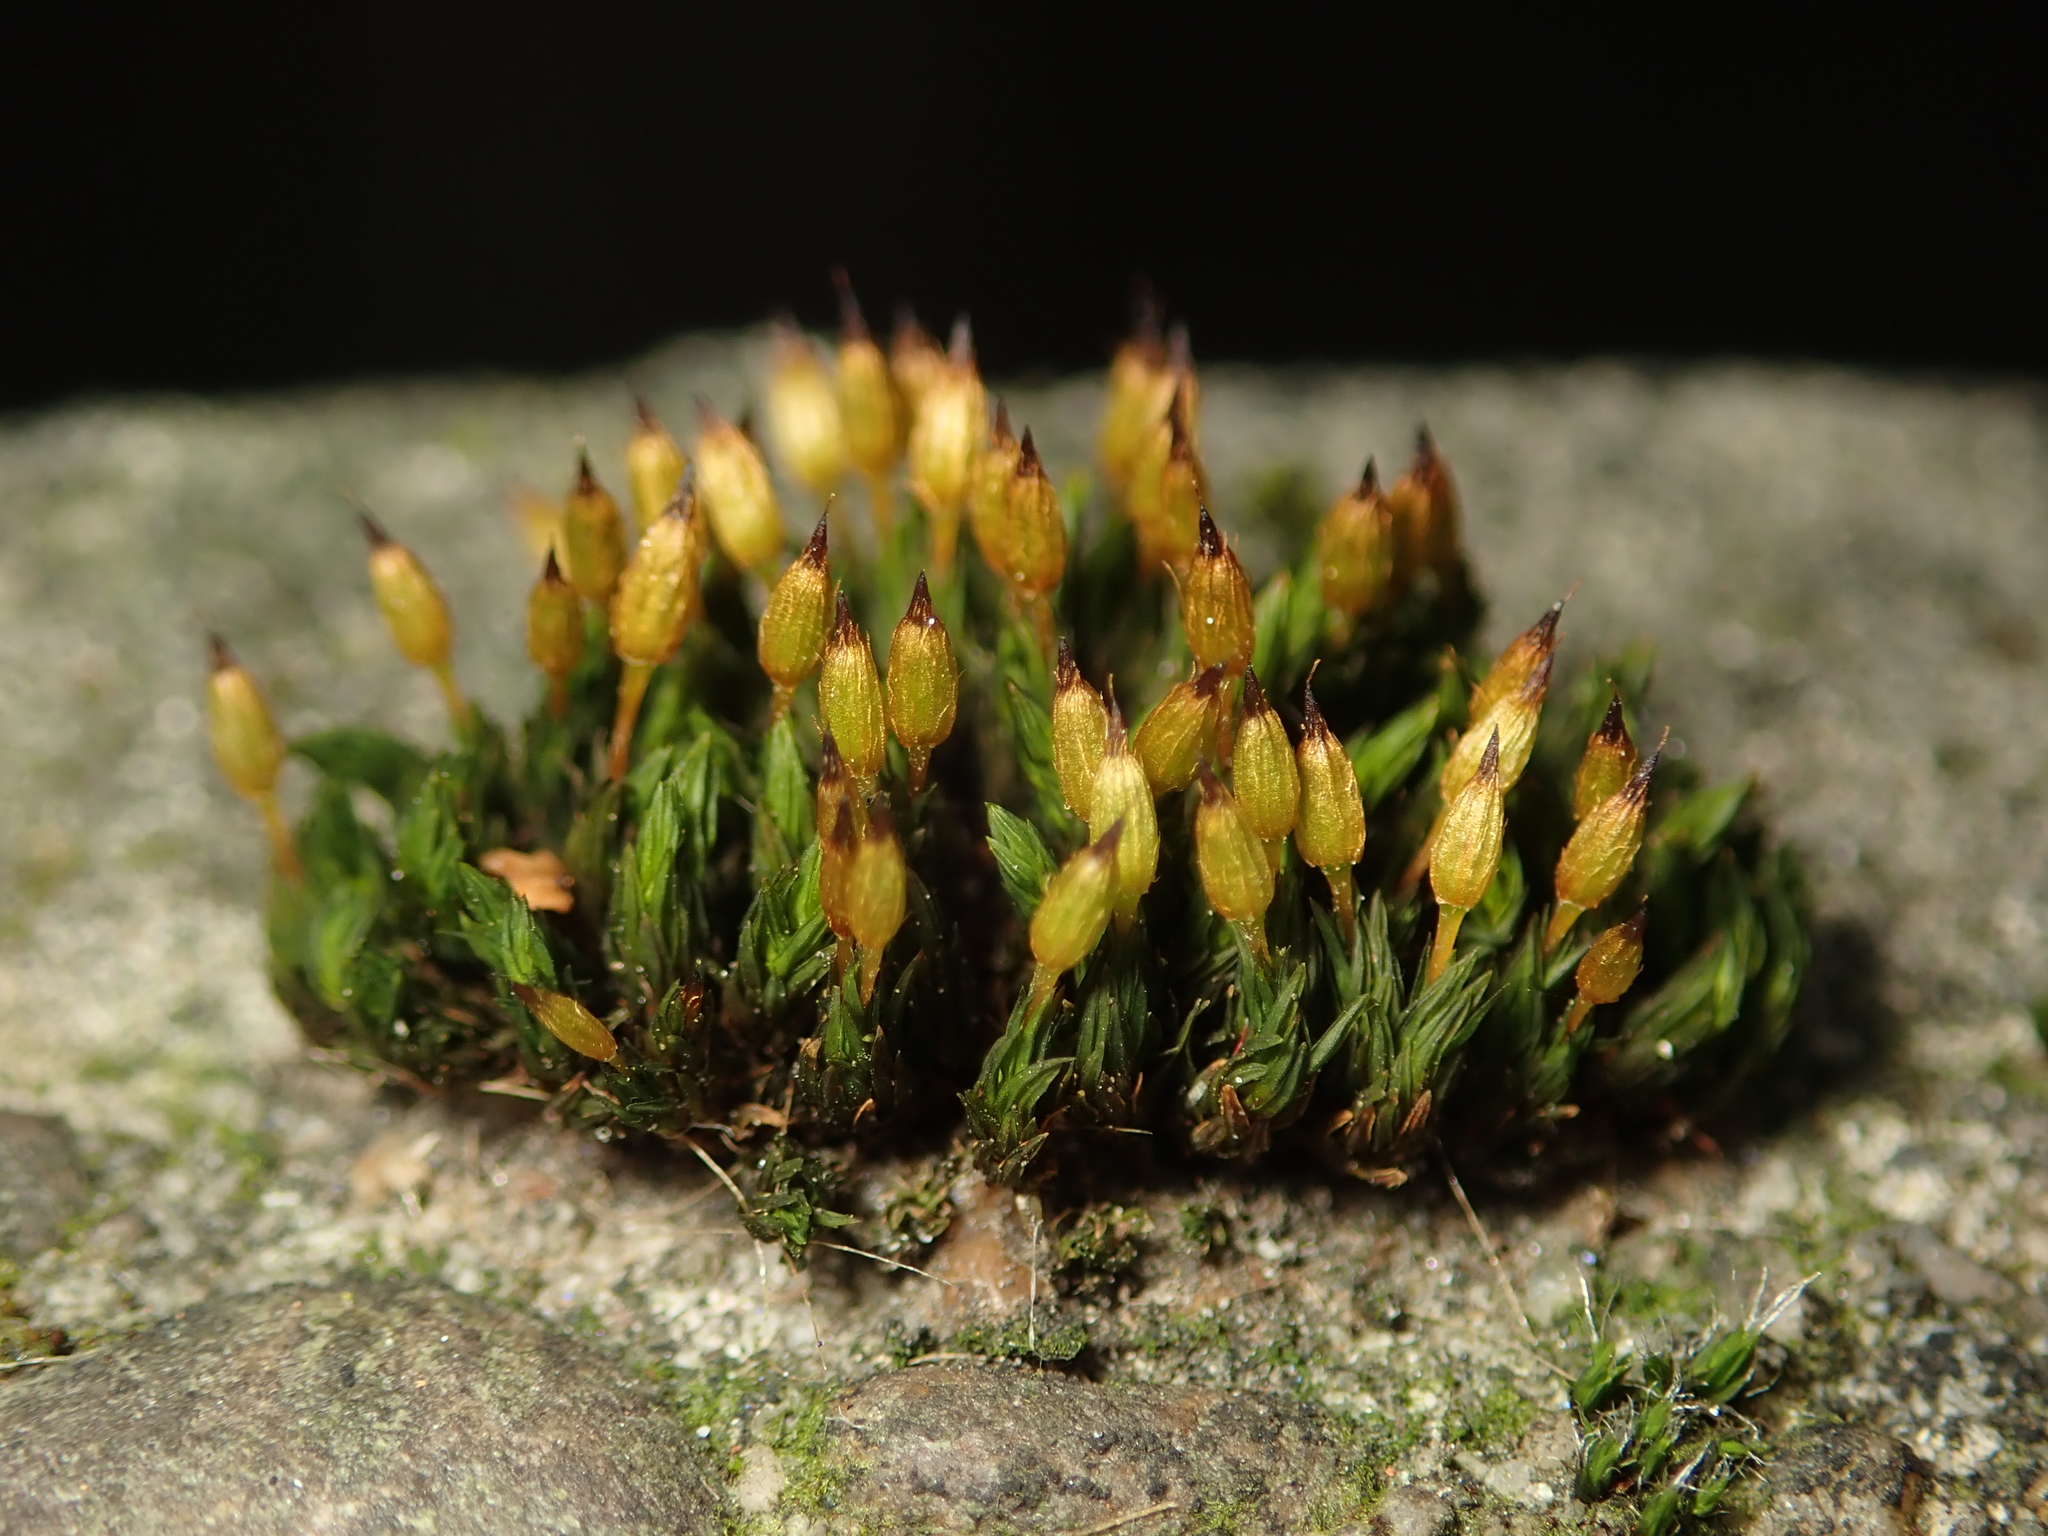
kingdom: Plantae
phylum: Bryophyta
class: Bryopsida
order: Orthotrichales
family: Orthotrichaceae
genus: Orthotrichum
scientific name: Orthotrichum anomalum
